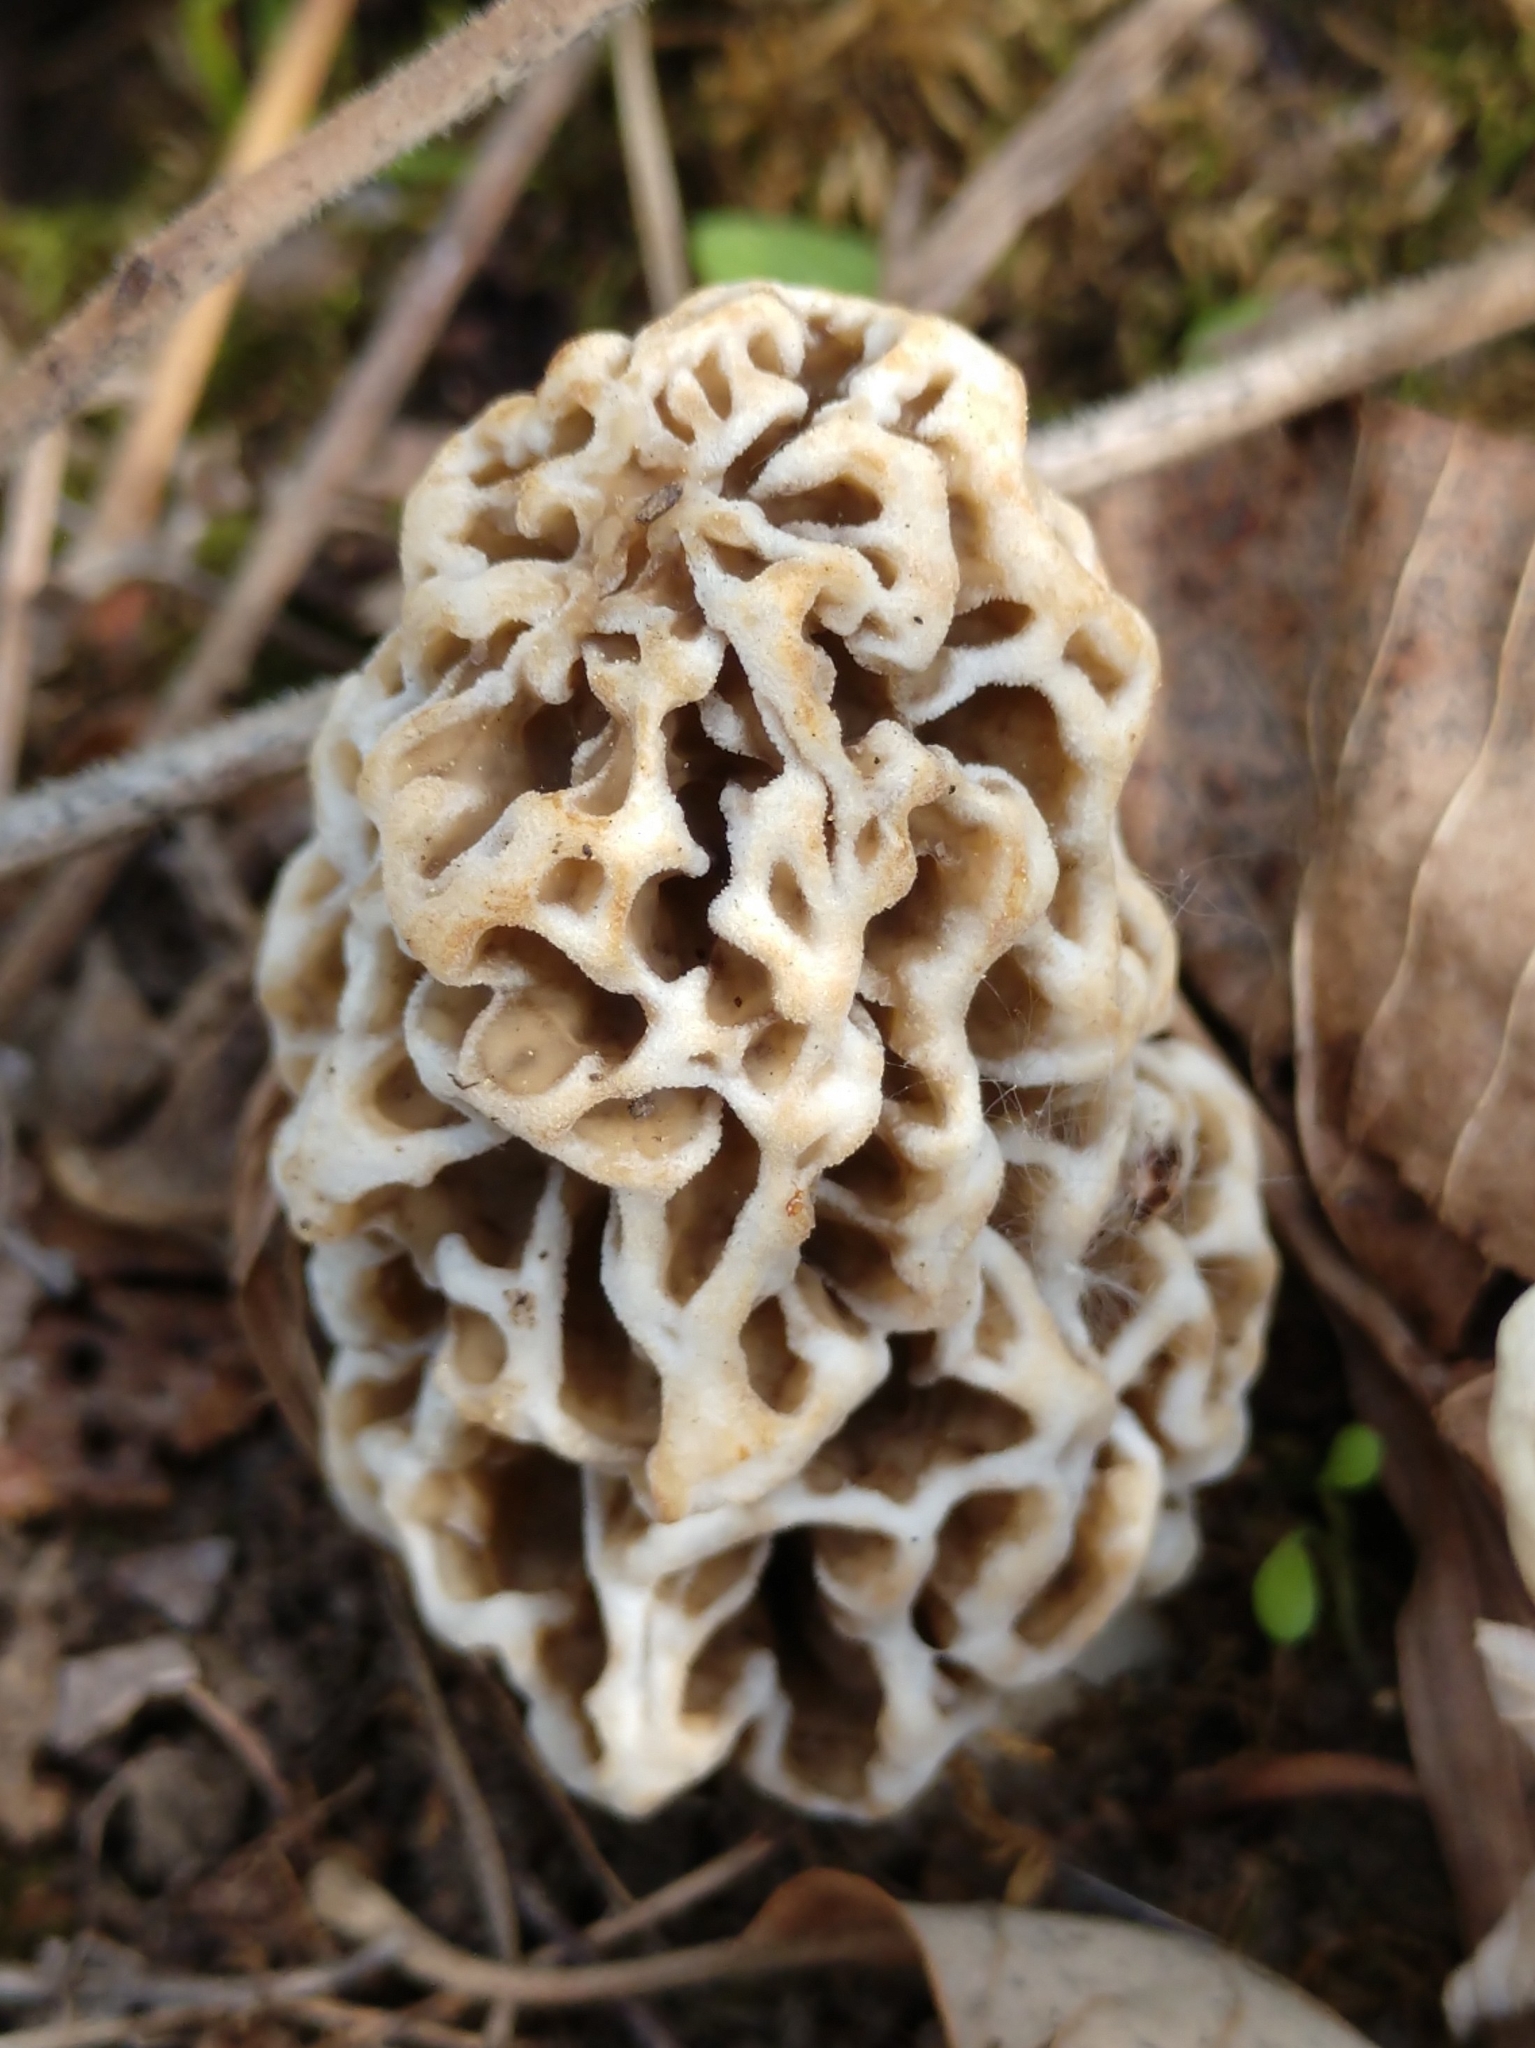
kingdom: Fungi
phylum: Ascomycota
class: Pezizomycetes
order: Pezizales
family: Morchellaceae
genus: Morchella
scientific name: Morchella americana
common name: White morel
